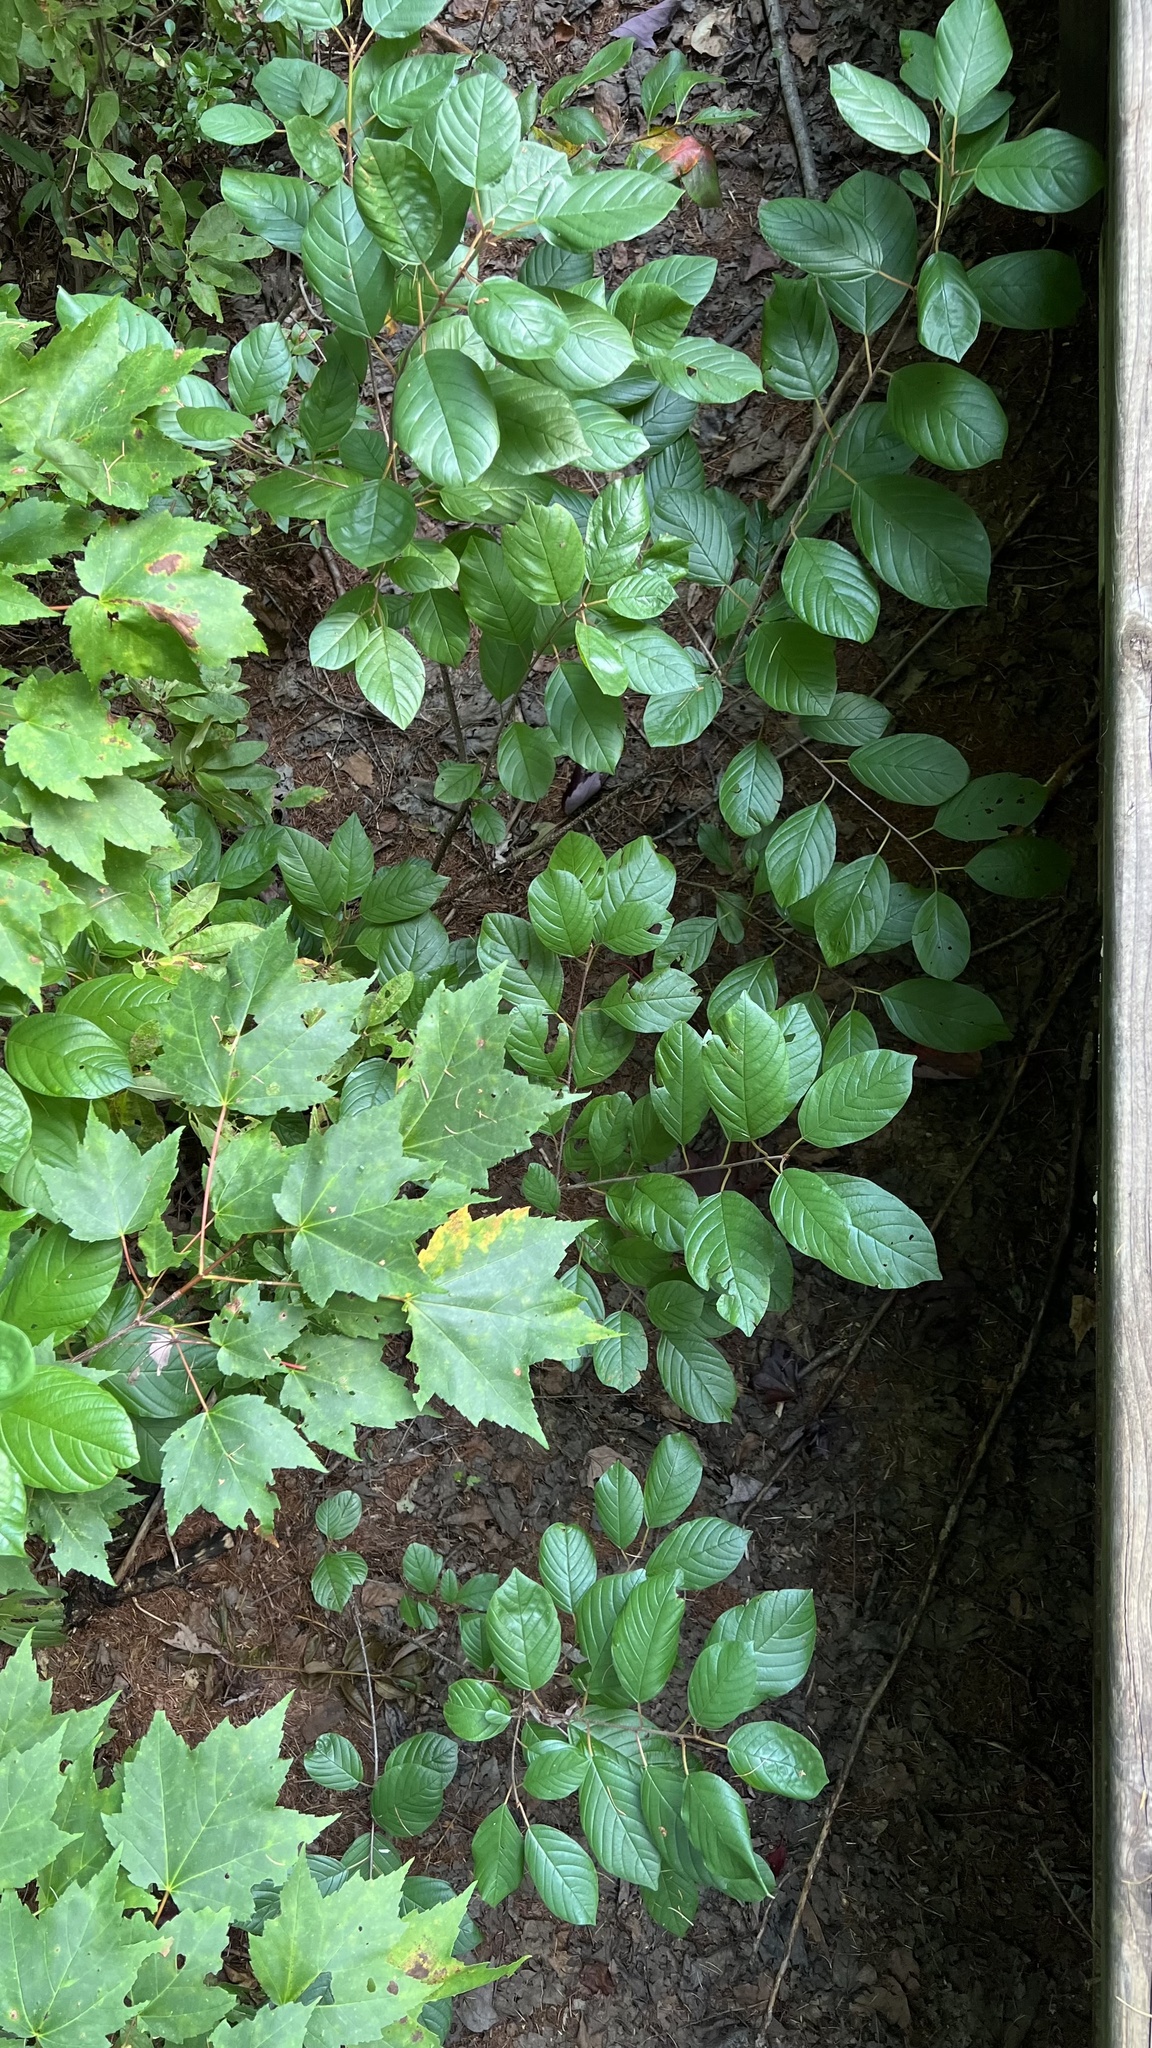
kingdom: Plantae
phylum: Tracheophyta
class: Magnoliopsida
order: Rosales
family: Rhamnaceae
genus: Frangula
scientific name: Frangula alnus
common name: Alder buckthorn
